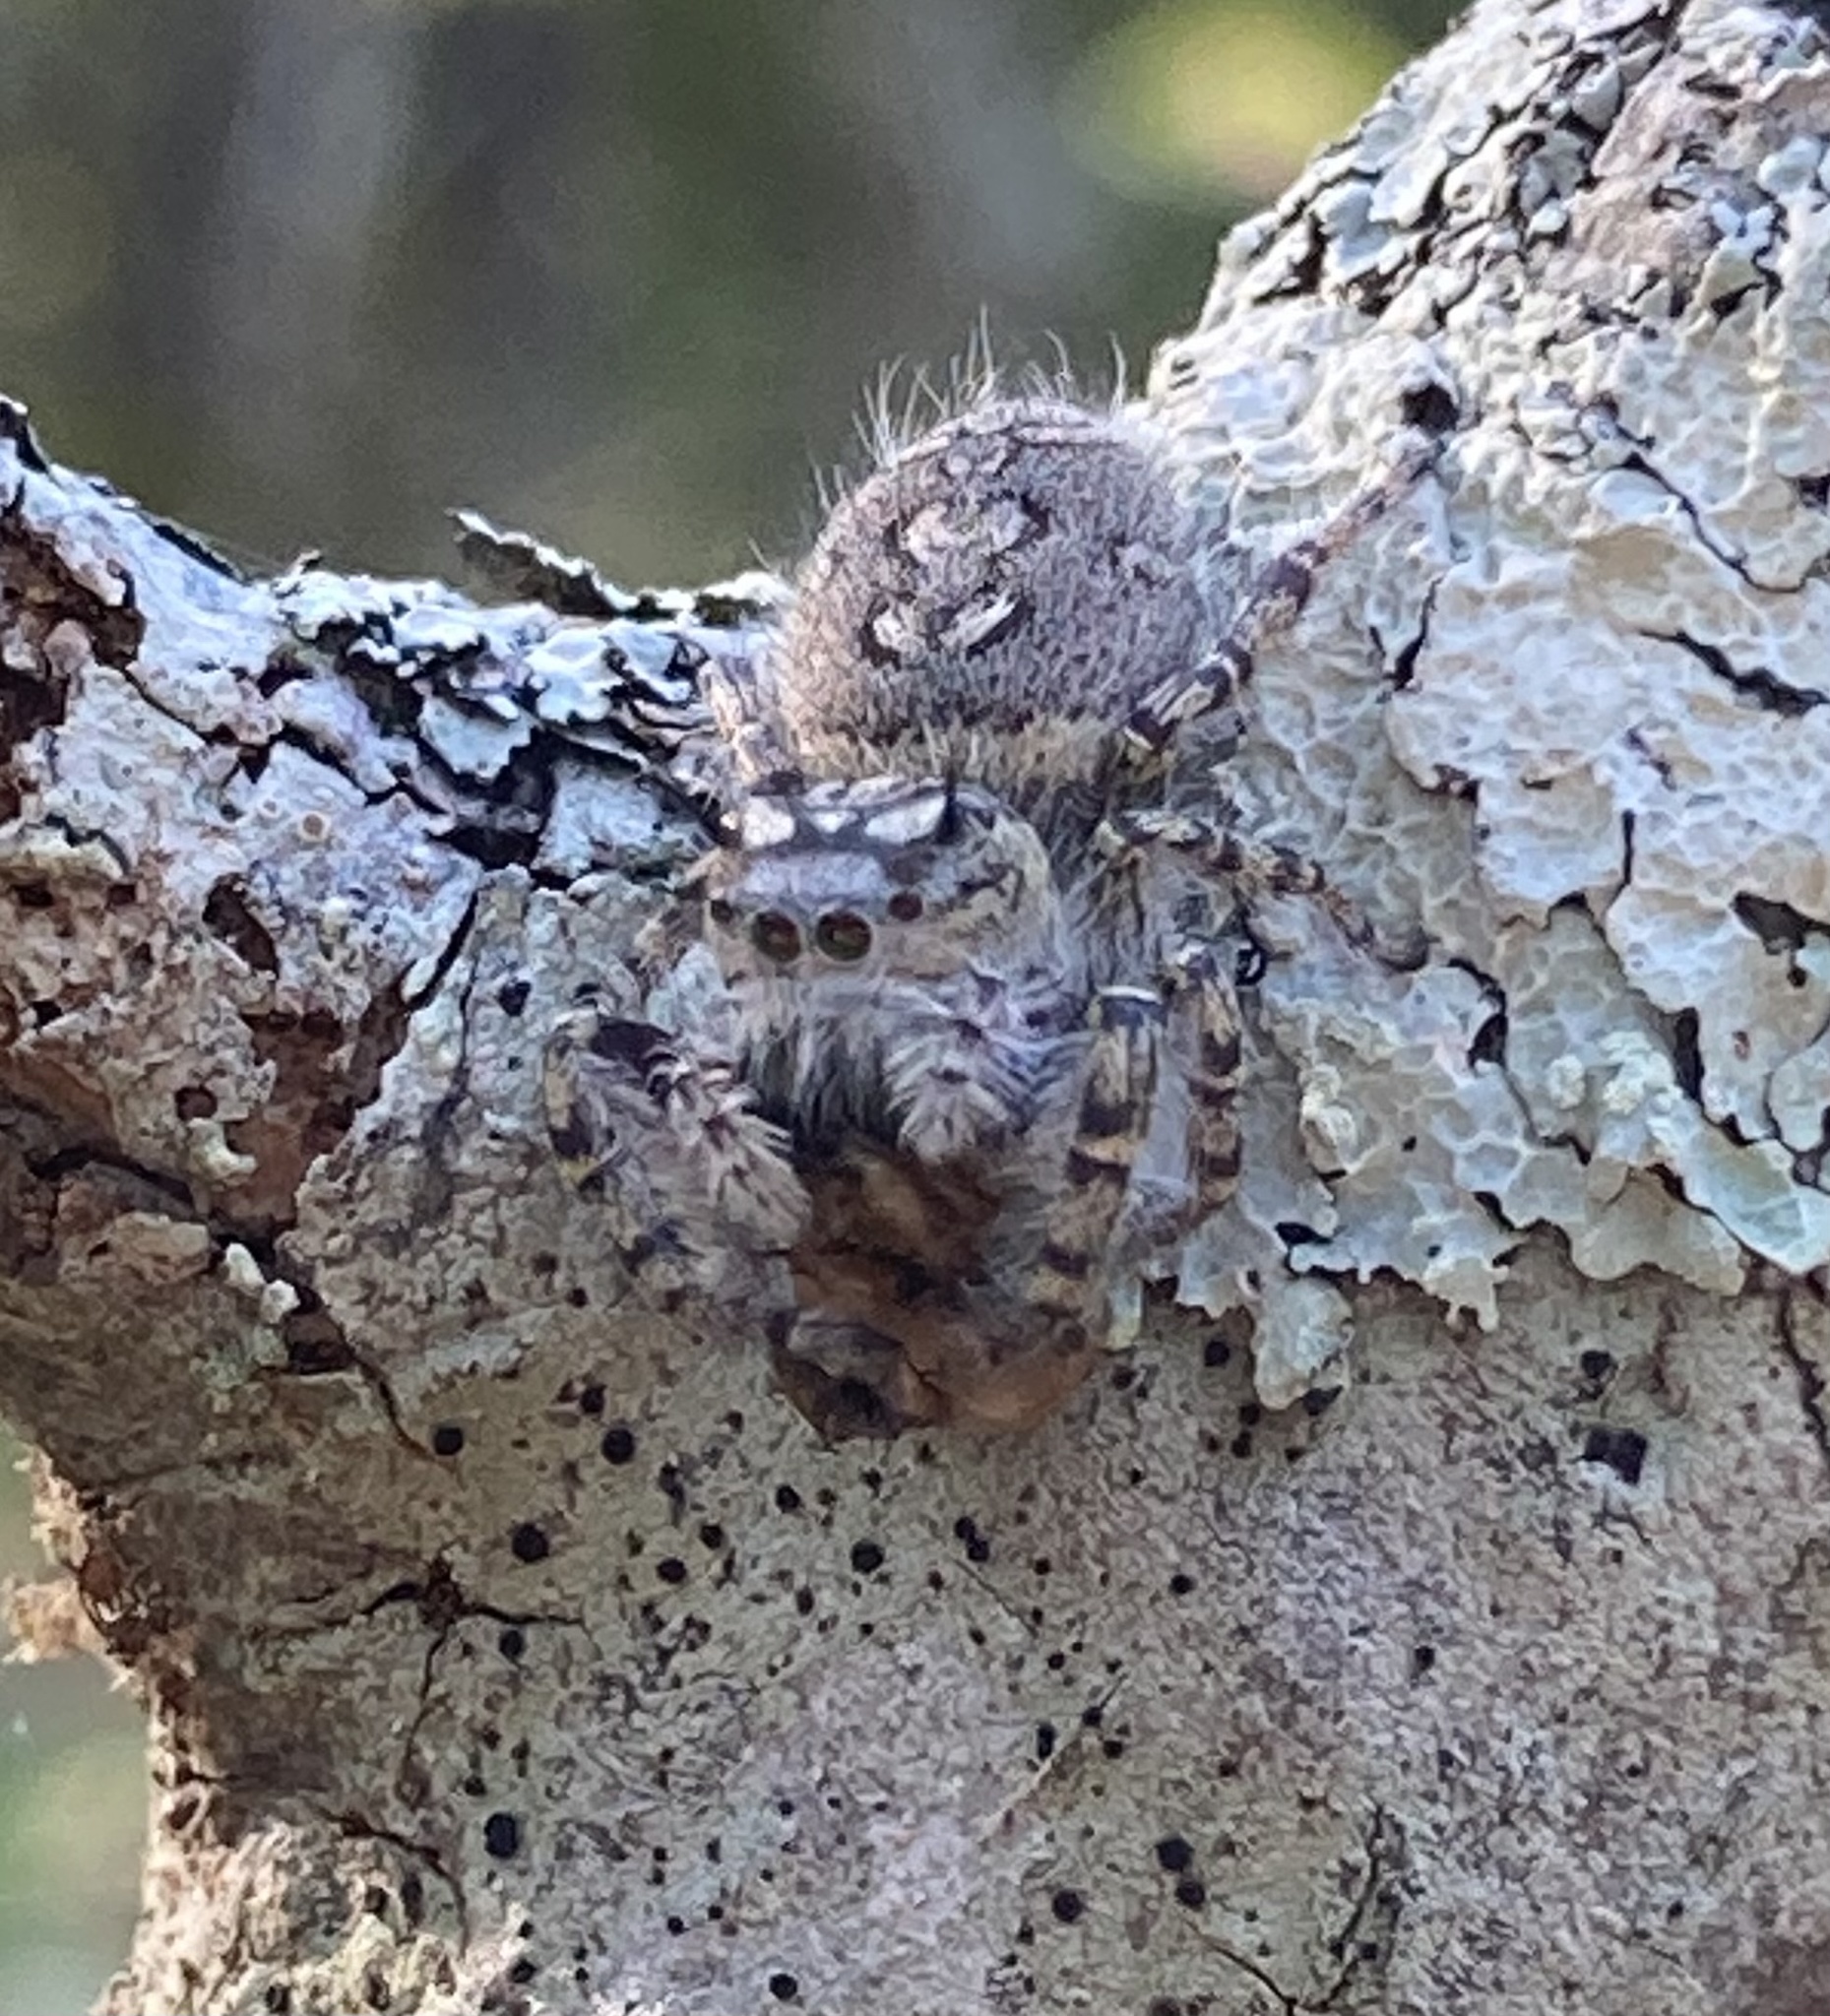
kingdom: Animalia
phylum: Arthropoda
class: Arachnida
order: Araneae
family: Salticidae
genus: Phidippus
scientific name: Phidippus mystaceus
